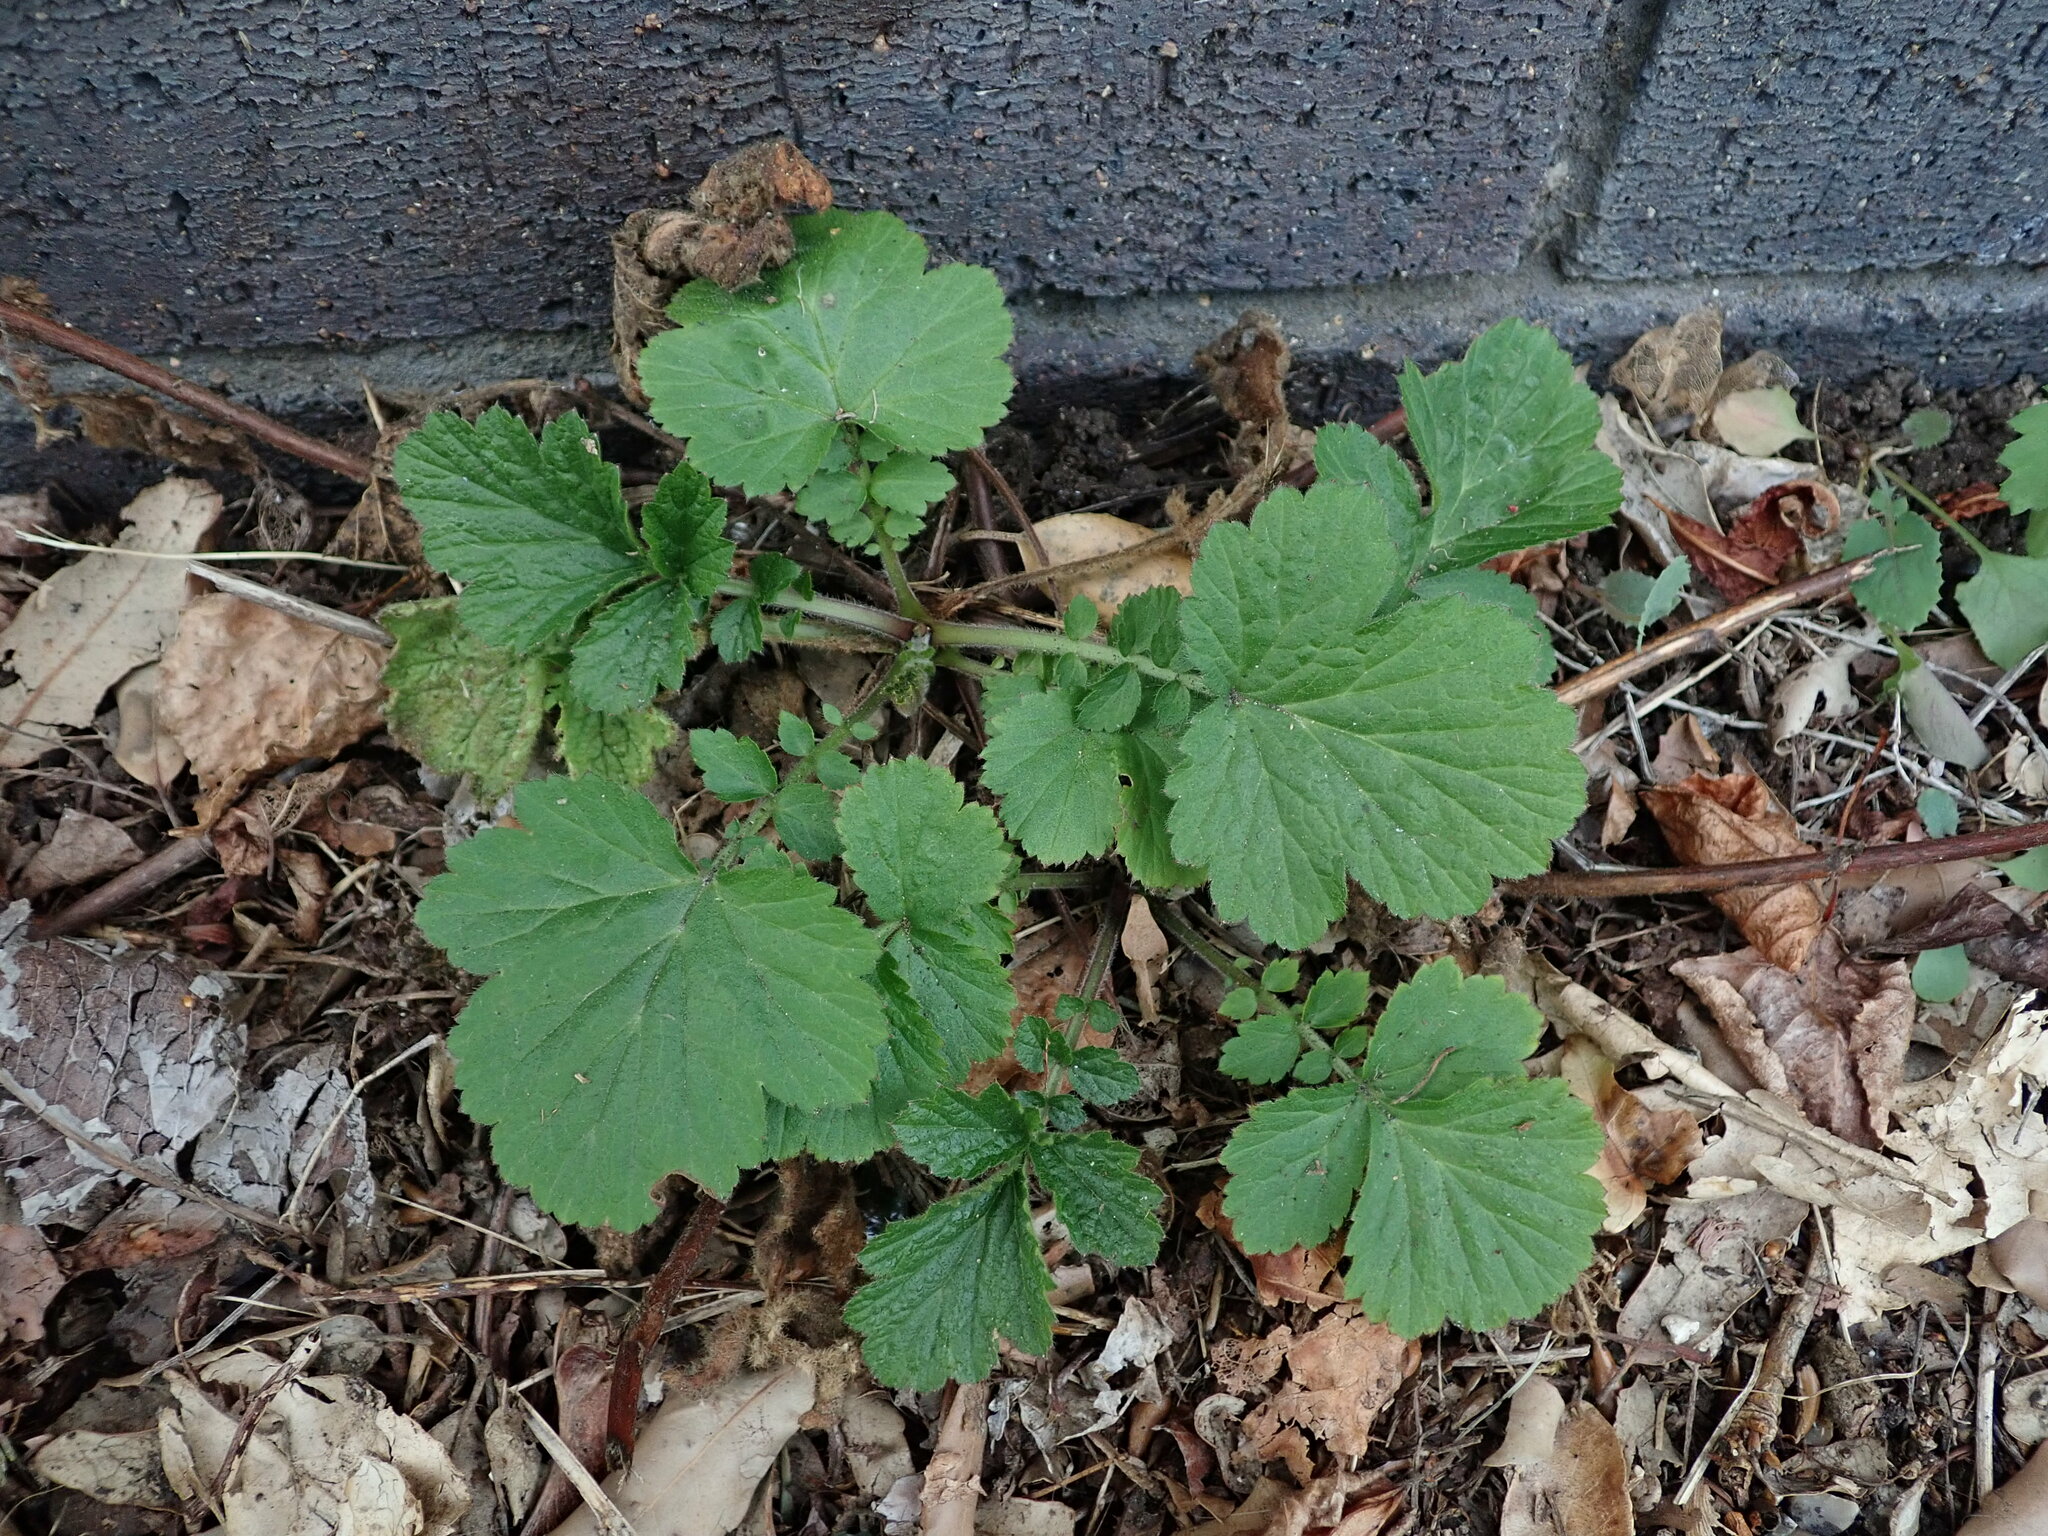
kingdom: Plantae
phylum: Tracheophyta
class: Magnoliopsida
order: Rosales
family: Rosaceae
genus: Geum
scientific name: Geum urbanum
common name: Wood avens
